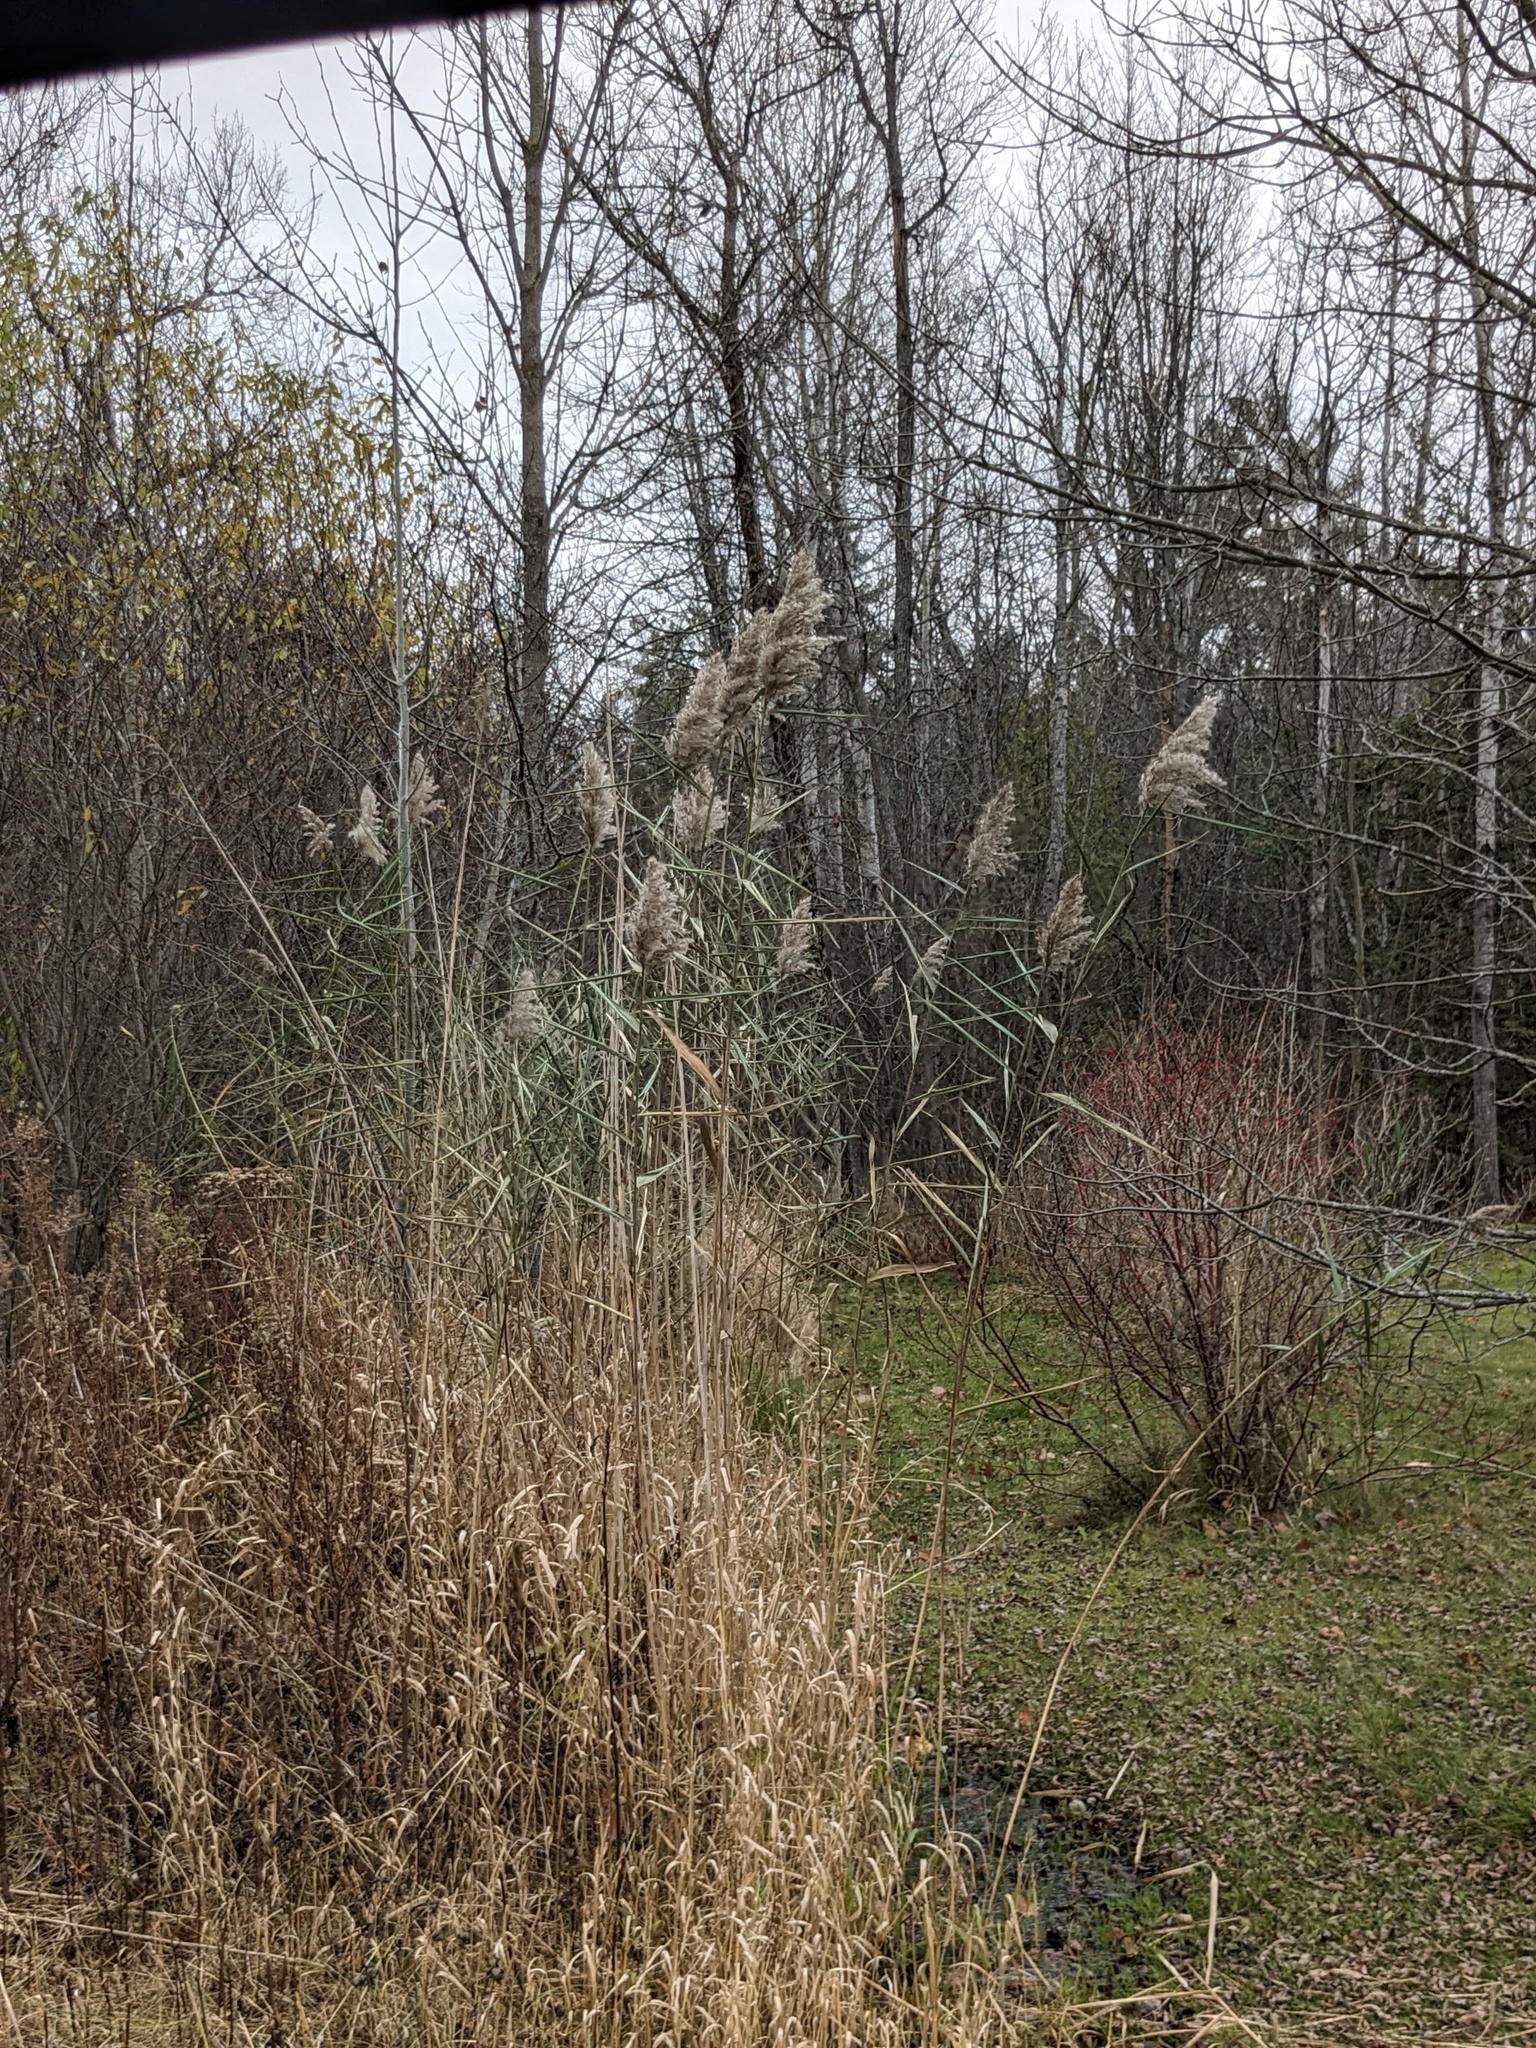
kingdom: Plantae
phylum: Tracheophyta
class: Liliopsida
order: Poales
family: Poaceae
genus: Phragmites
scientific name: Phragmites australis
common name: Common reed
